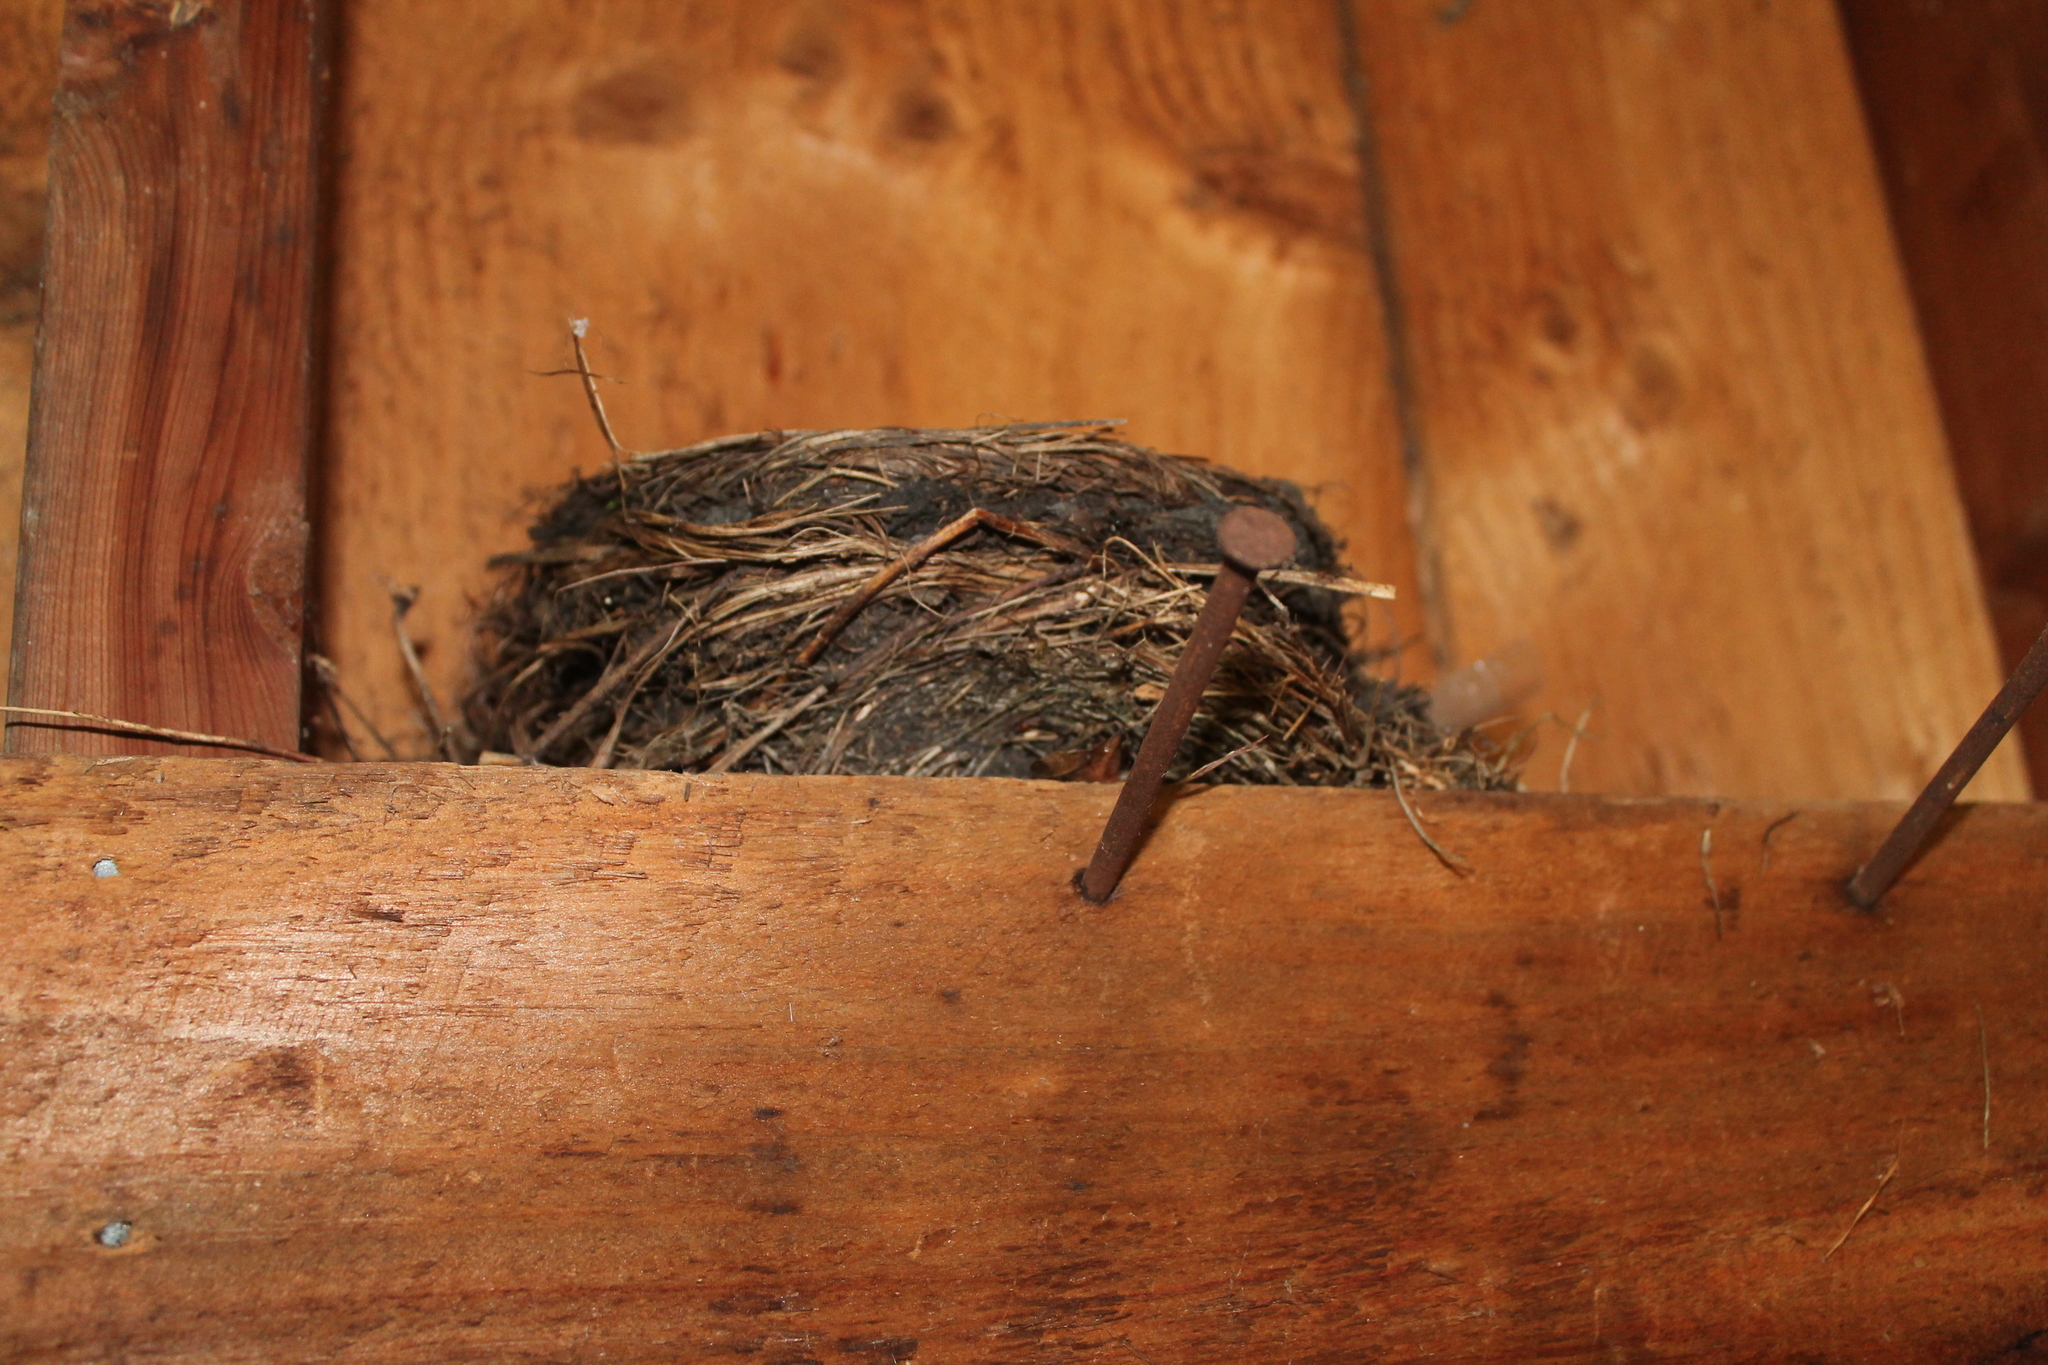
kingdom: Animalia
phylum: Chordata
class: Aves
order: Passeriformes
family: Turdidae
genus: Turdus
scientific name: Turdus migratorius
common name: American robin
